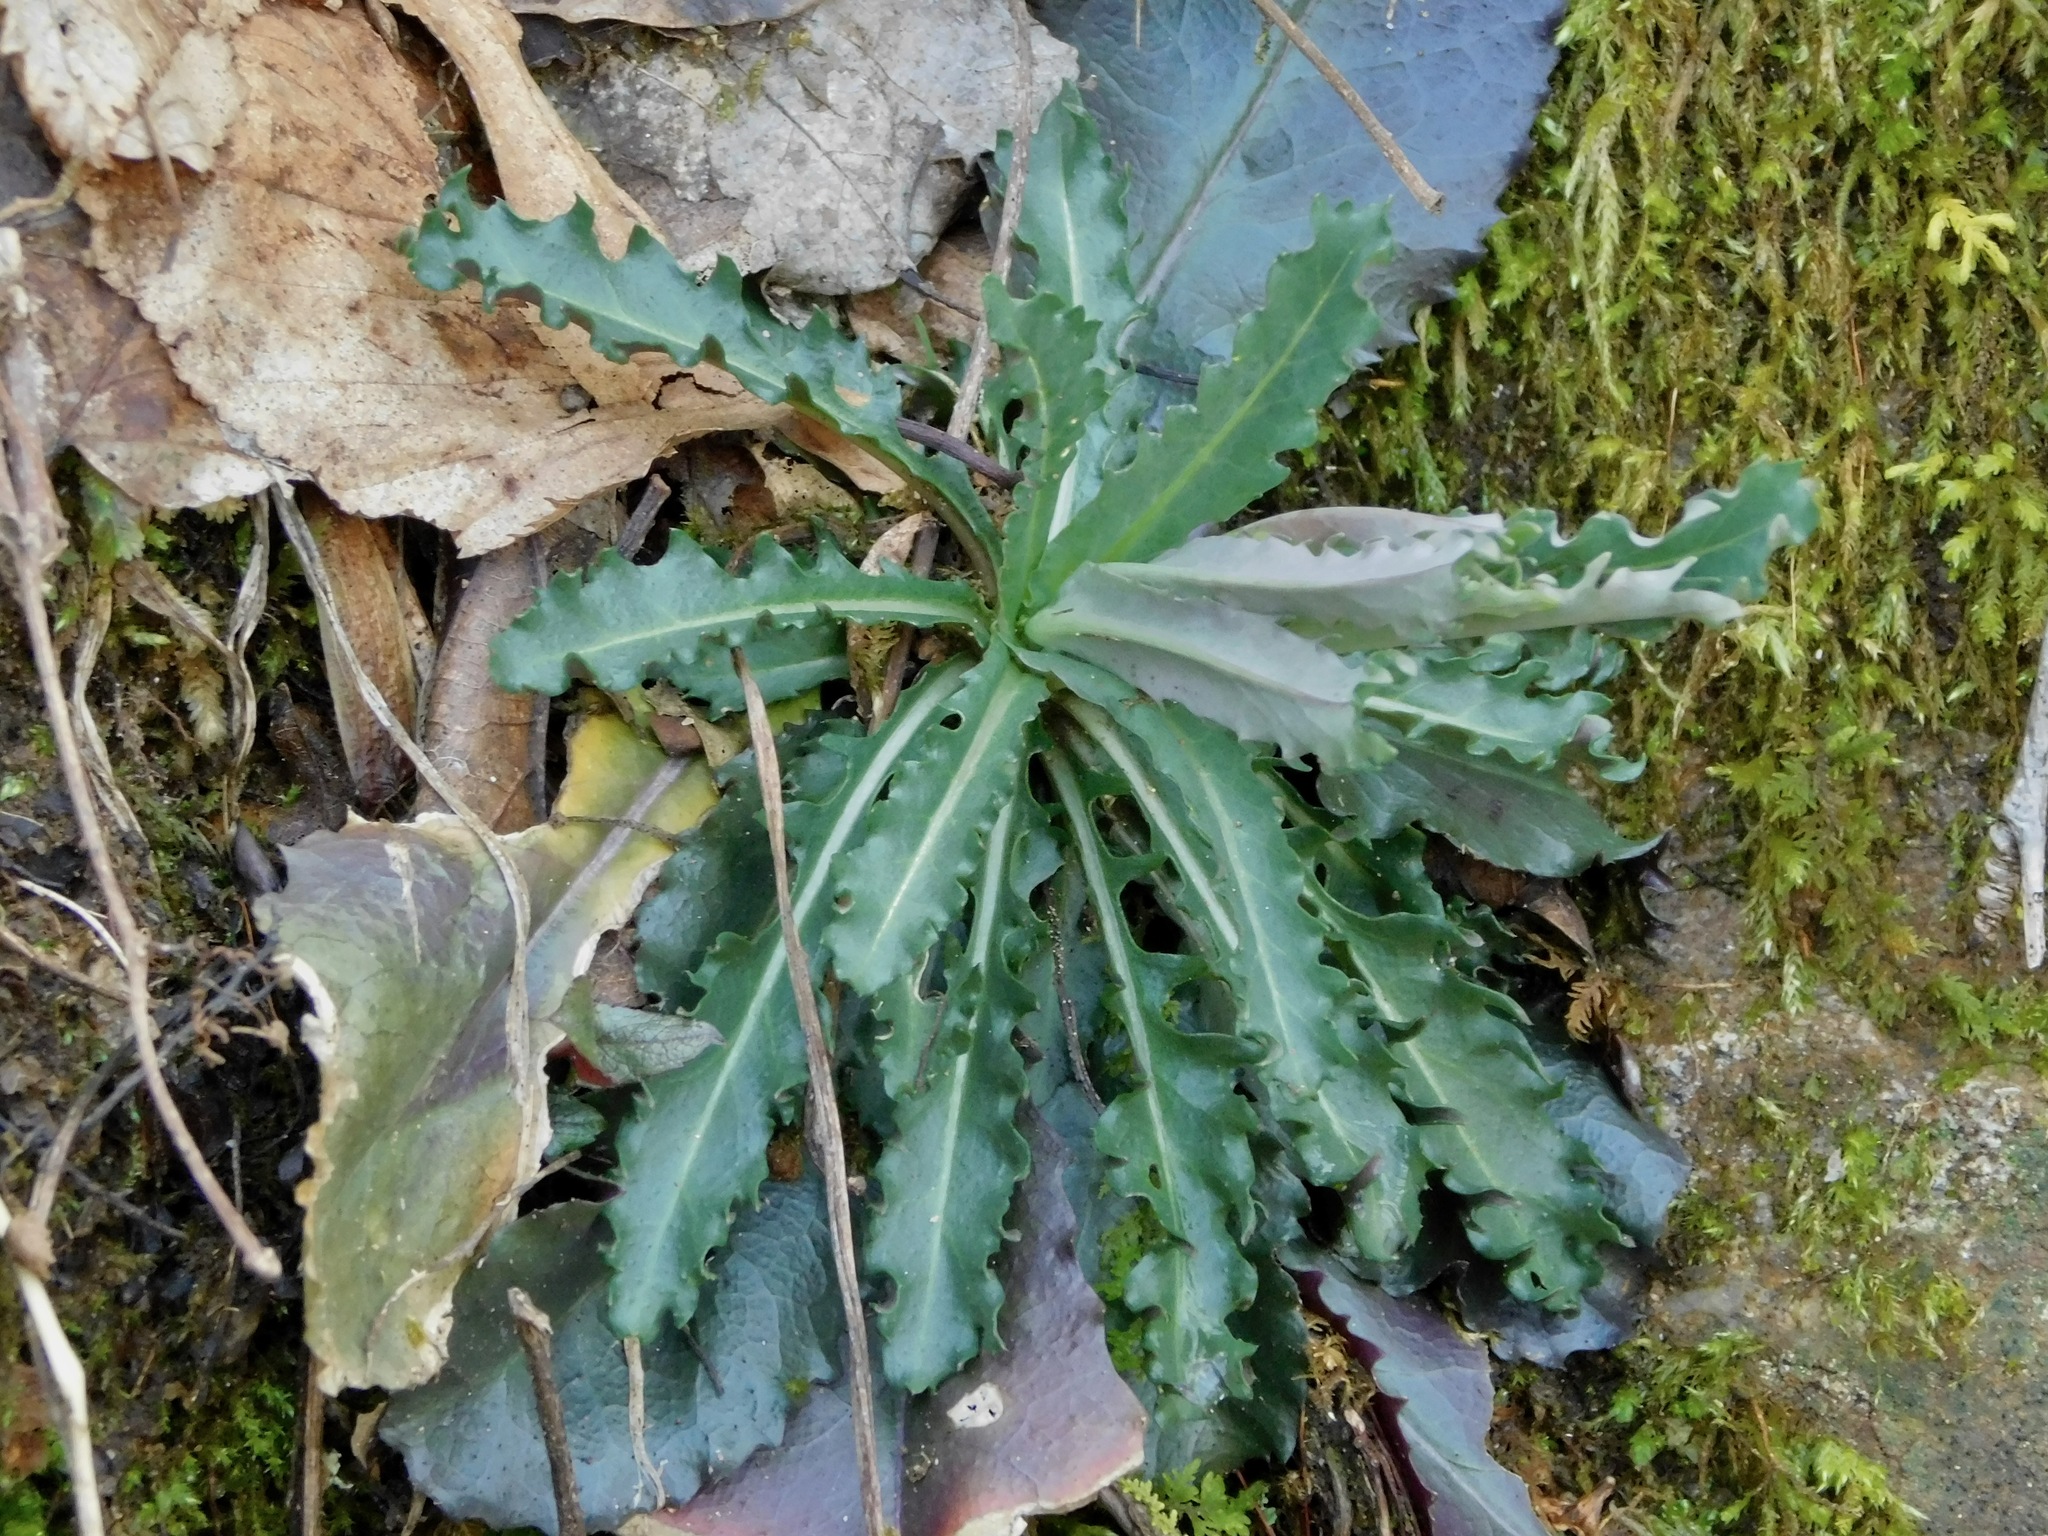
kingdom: Plantae
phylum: Tracheophyta
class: Magnoliopsida
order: Brassicales
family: Brassicaceae
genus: Borodinia
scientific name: Borodinia laevigata
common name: Smooth rockcress
